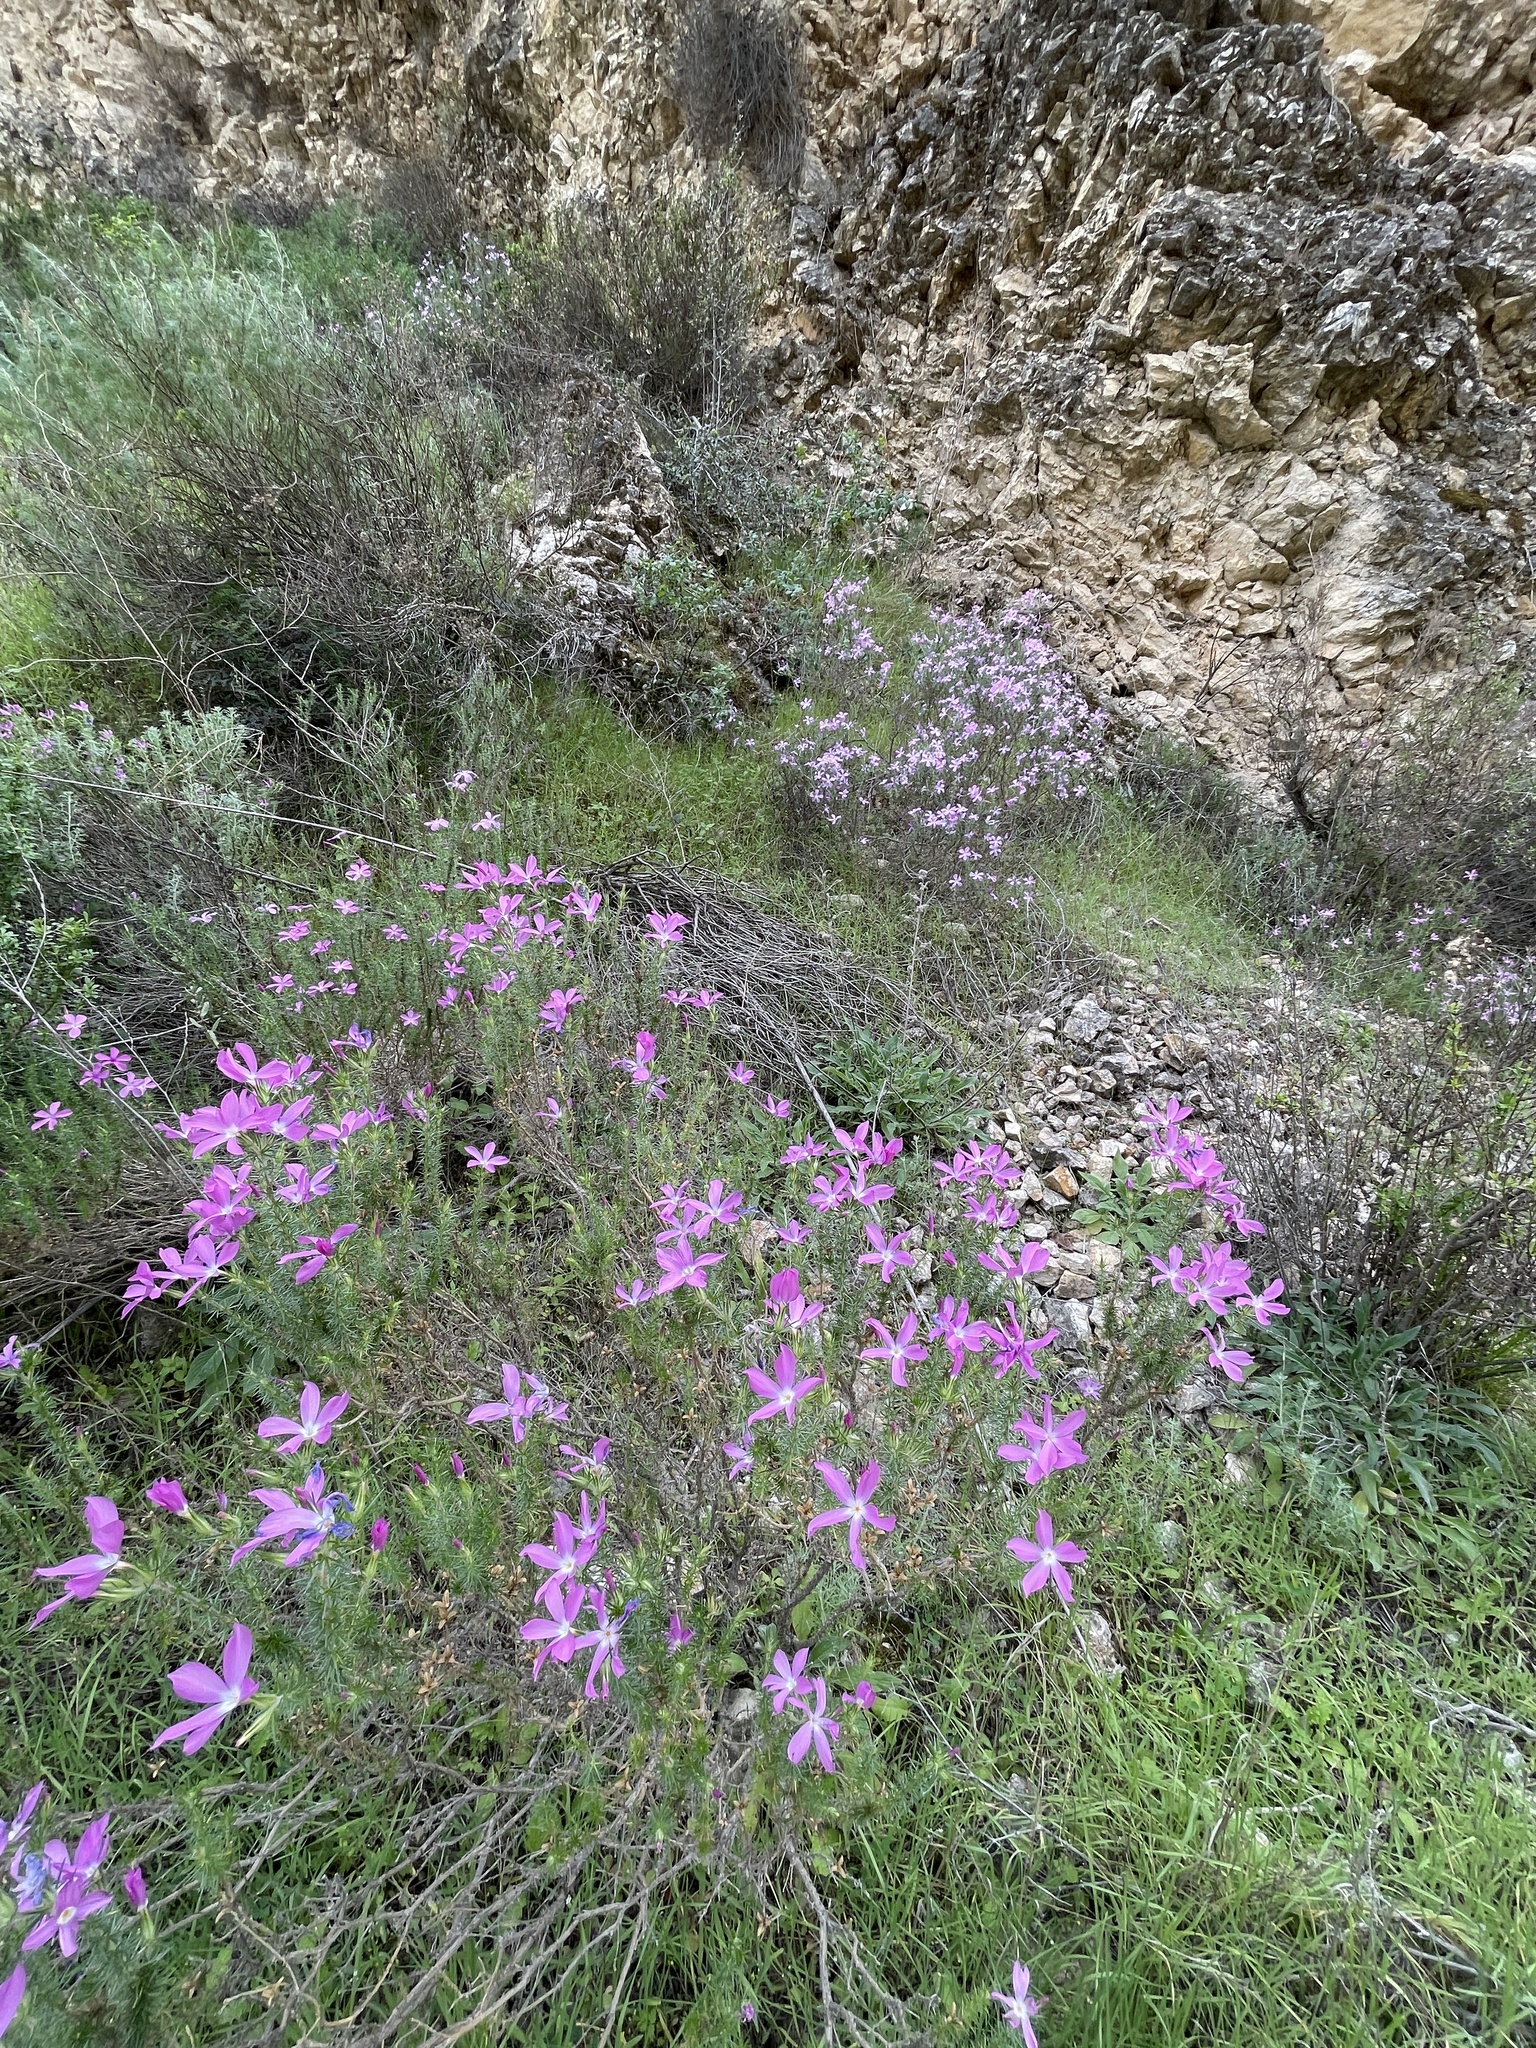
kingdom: Plantae
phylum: Tracheophyta
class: Magnoliopsida
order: Ericales
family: Polemoniaceae
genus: Linanthus
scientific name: Linanthus californicus
